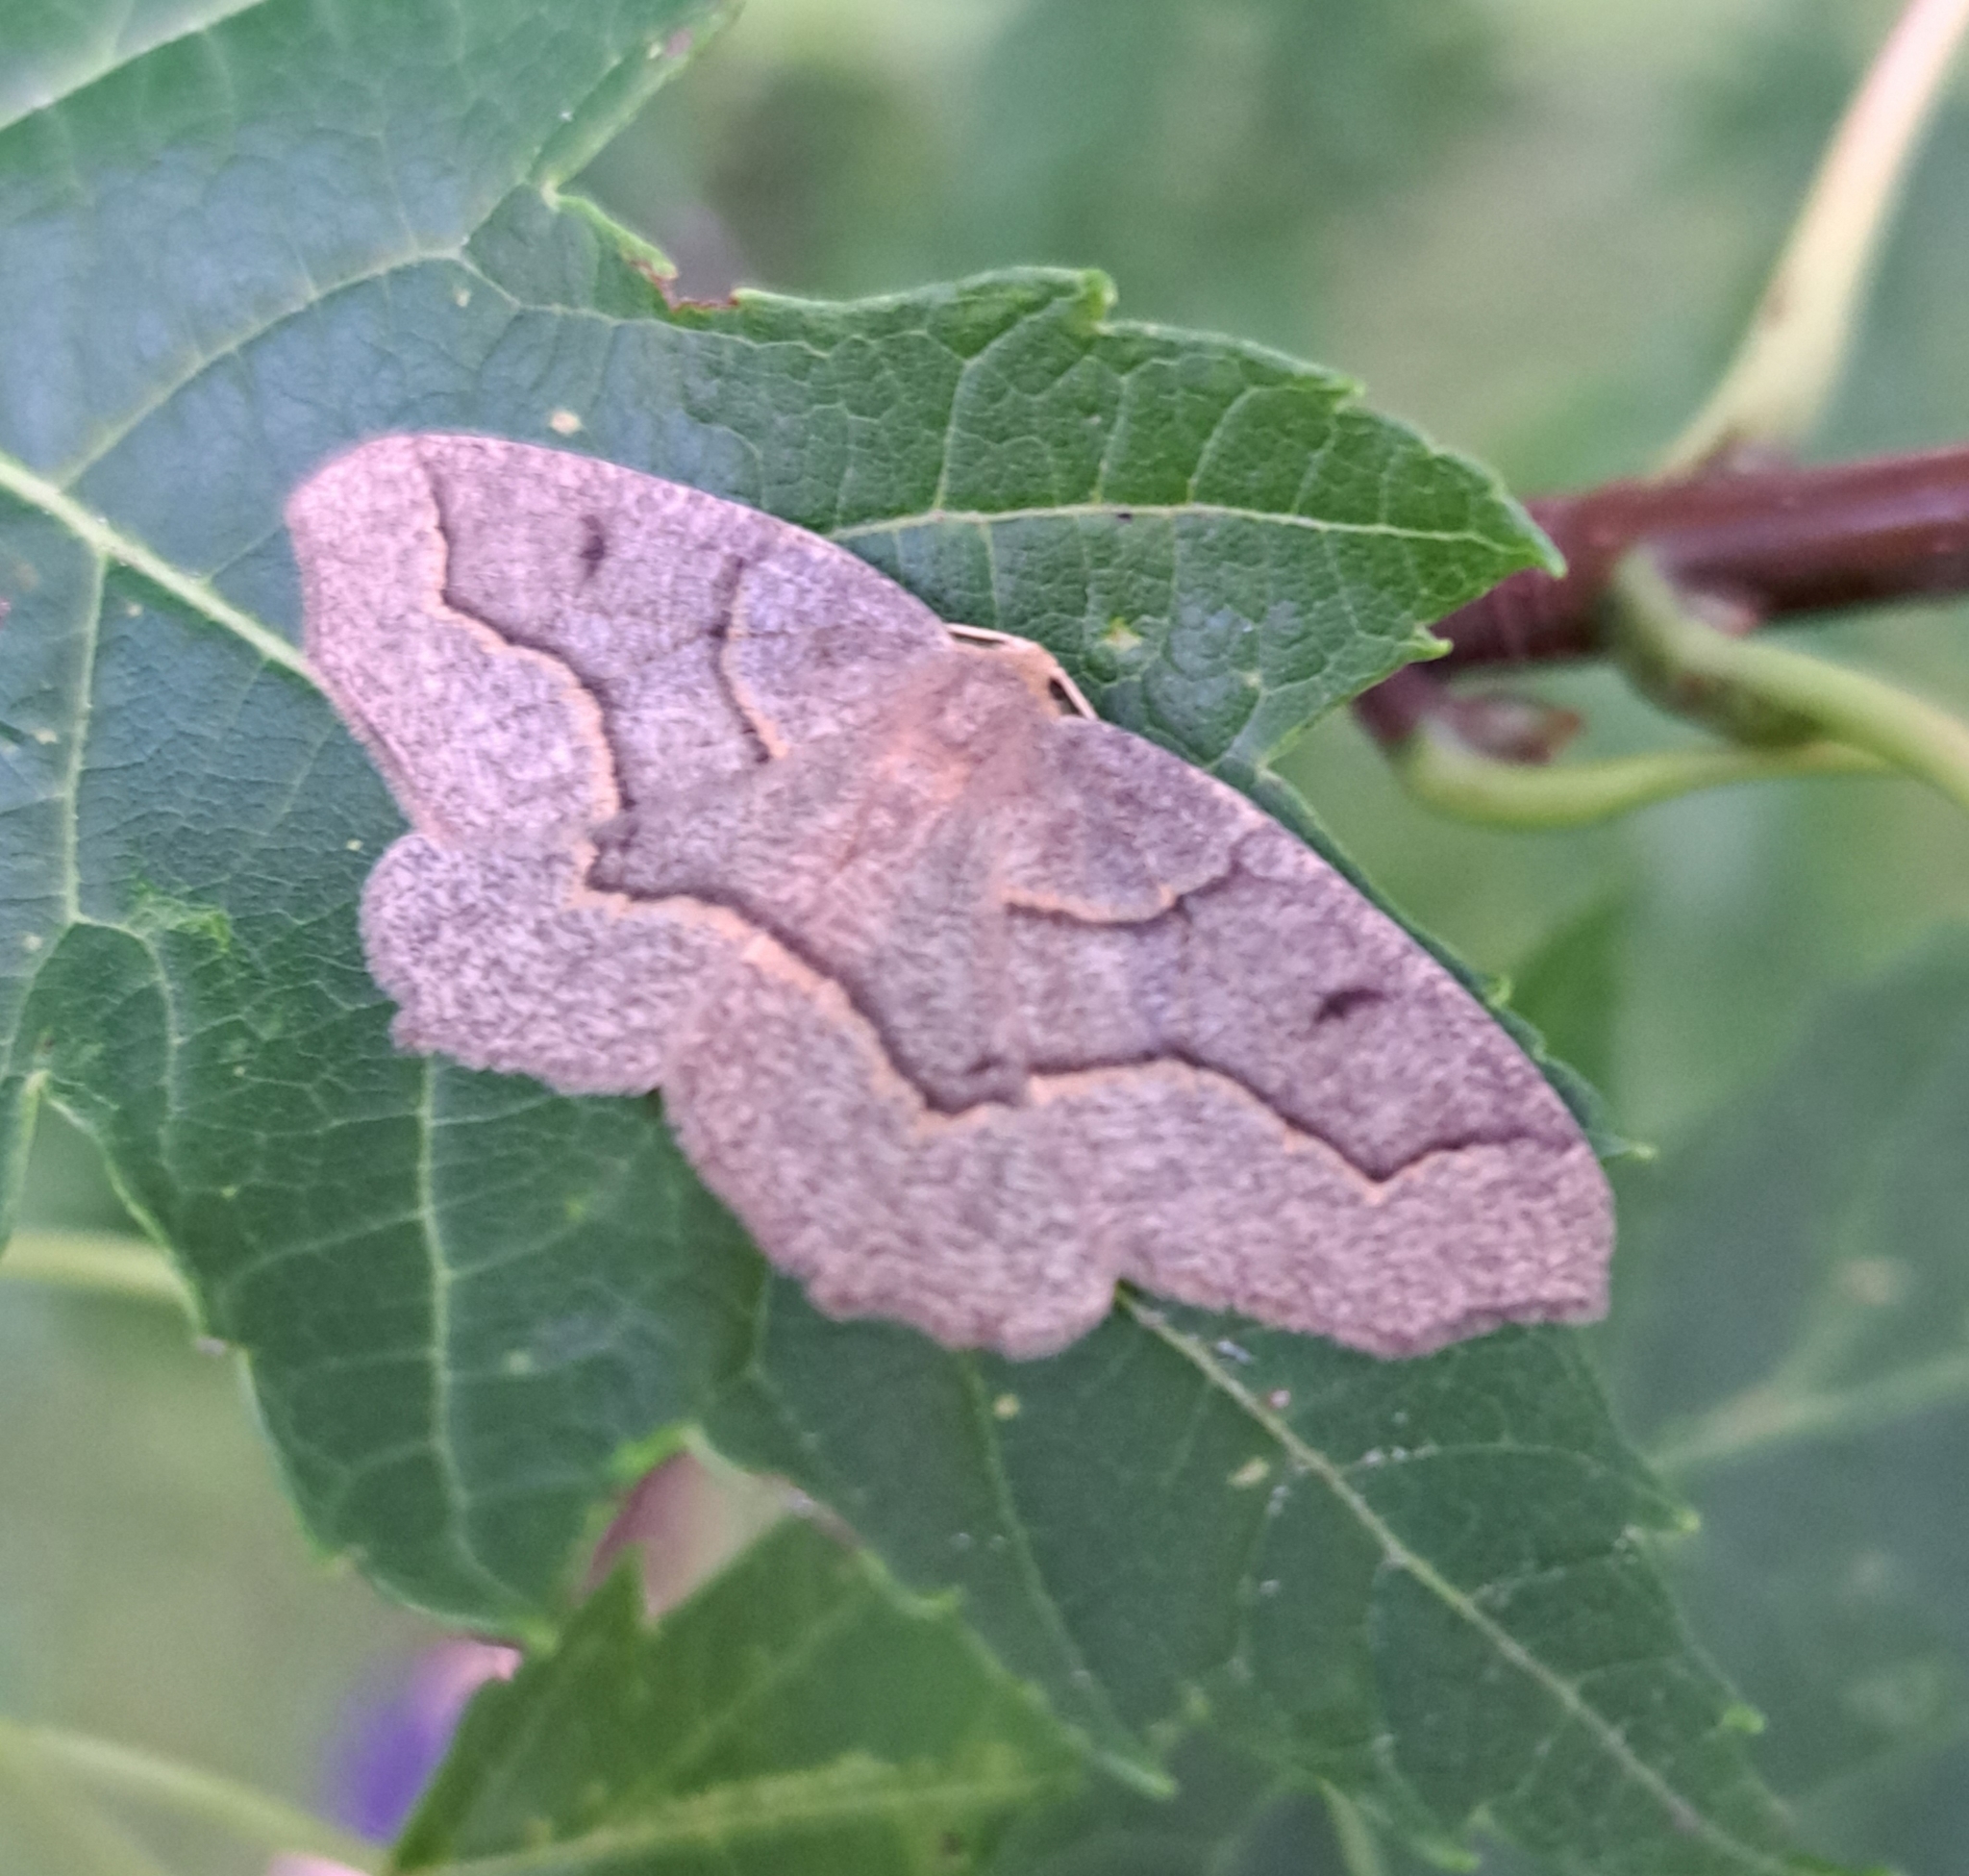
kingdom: Animalia
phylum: Arthropoda
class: Insecta
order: Lepidoptera
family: Geometridae
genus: Lambdina
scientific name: Lambdina fiscellaria
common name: Hemlock looper
